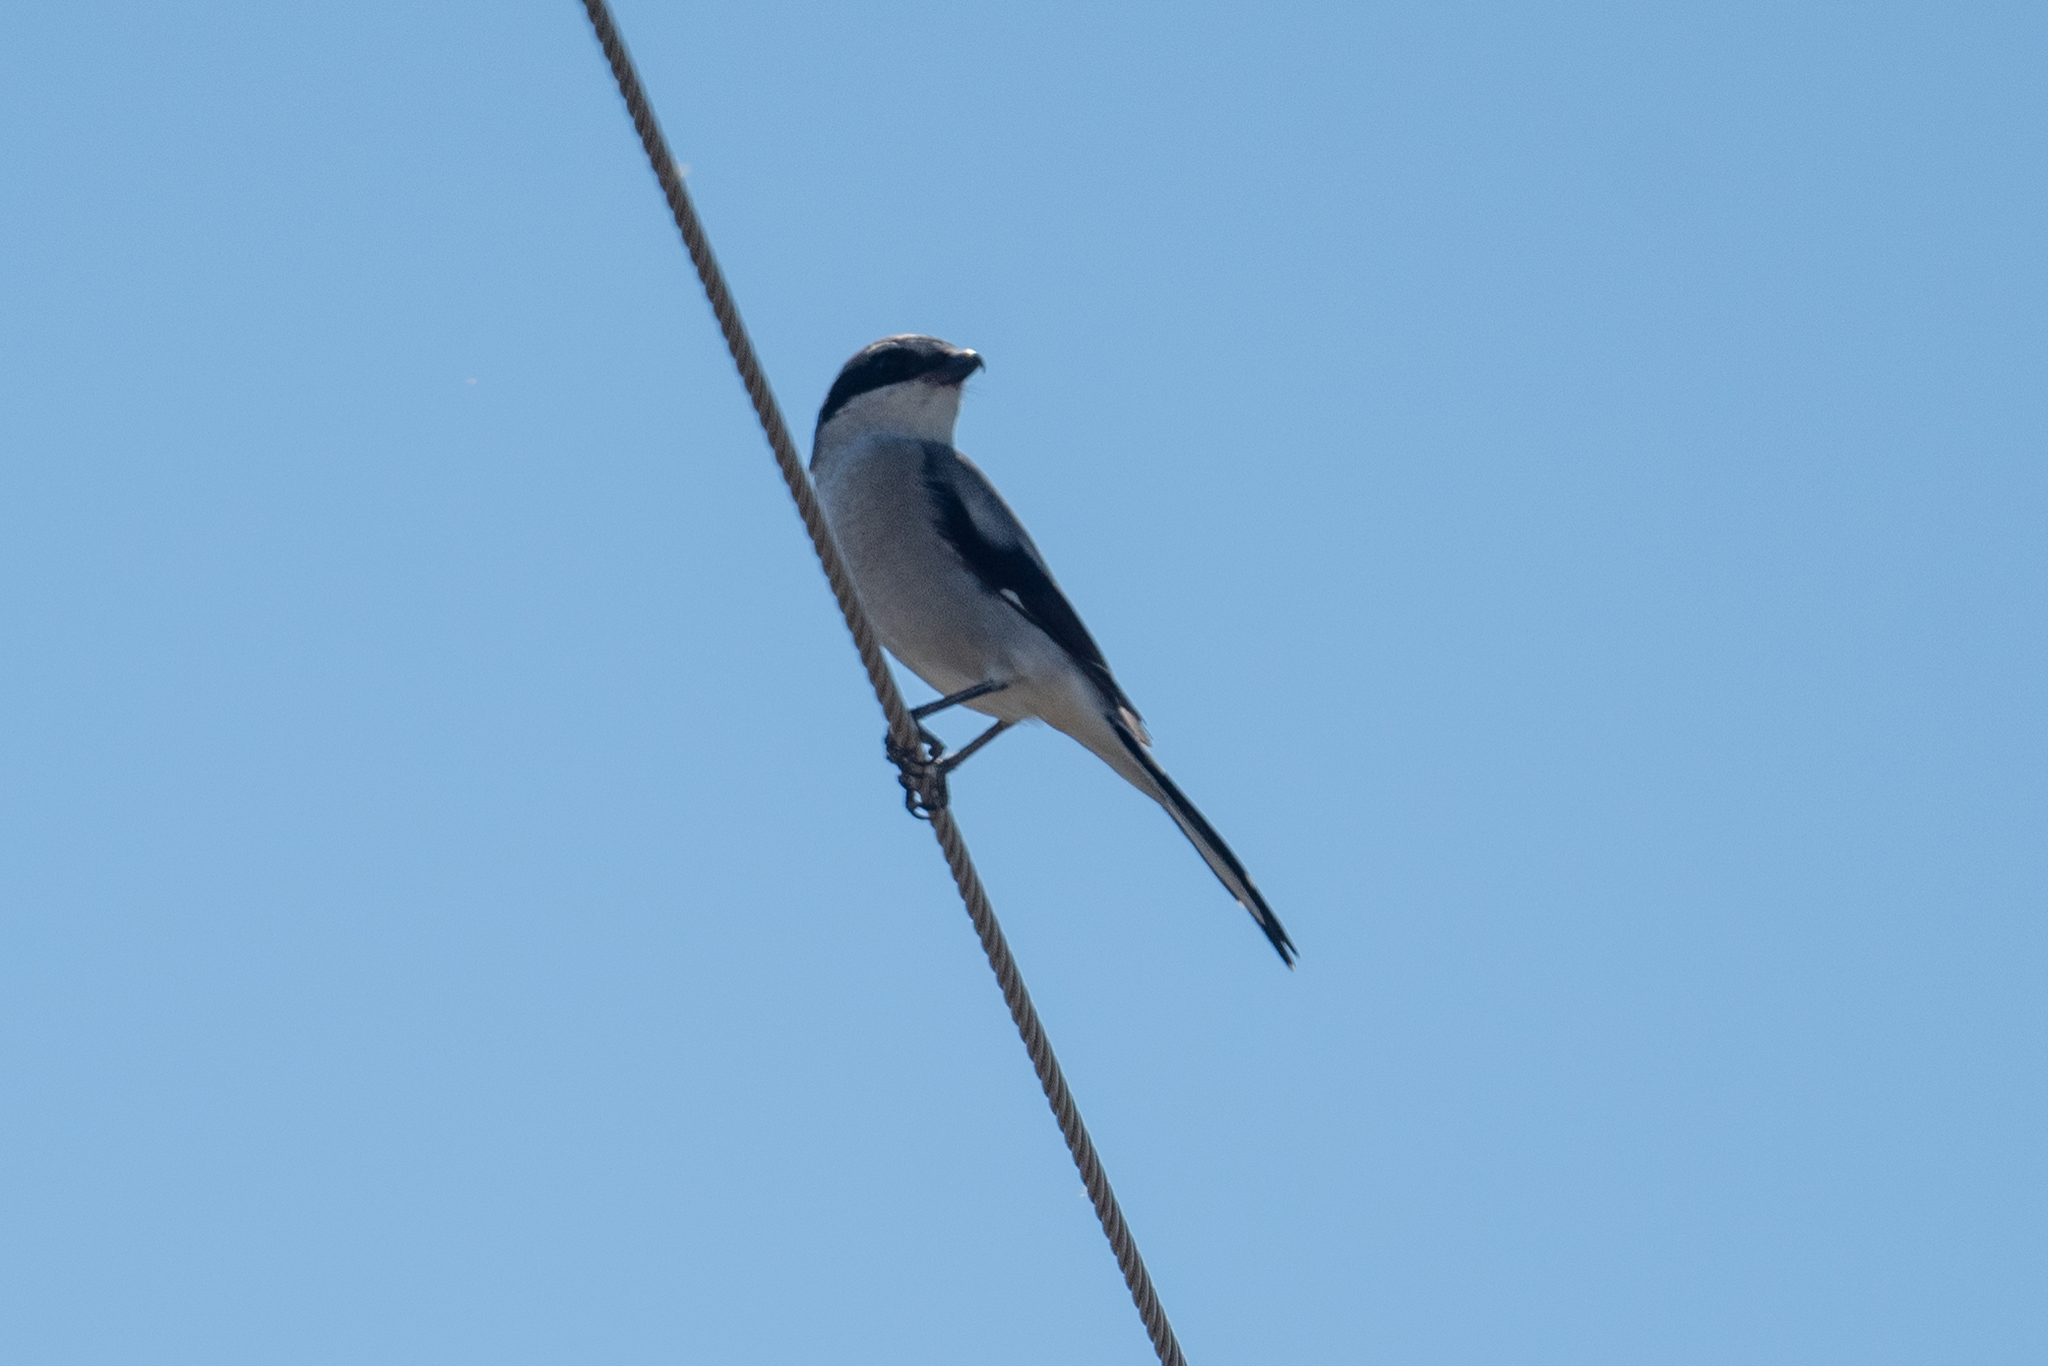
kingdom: Animalia
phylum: Chordata
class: Aves
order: Passeriformes
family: Laniidae
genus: Lanius
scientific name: Lanius ludovicianus
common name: Loggerhead shrike
